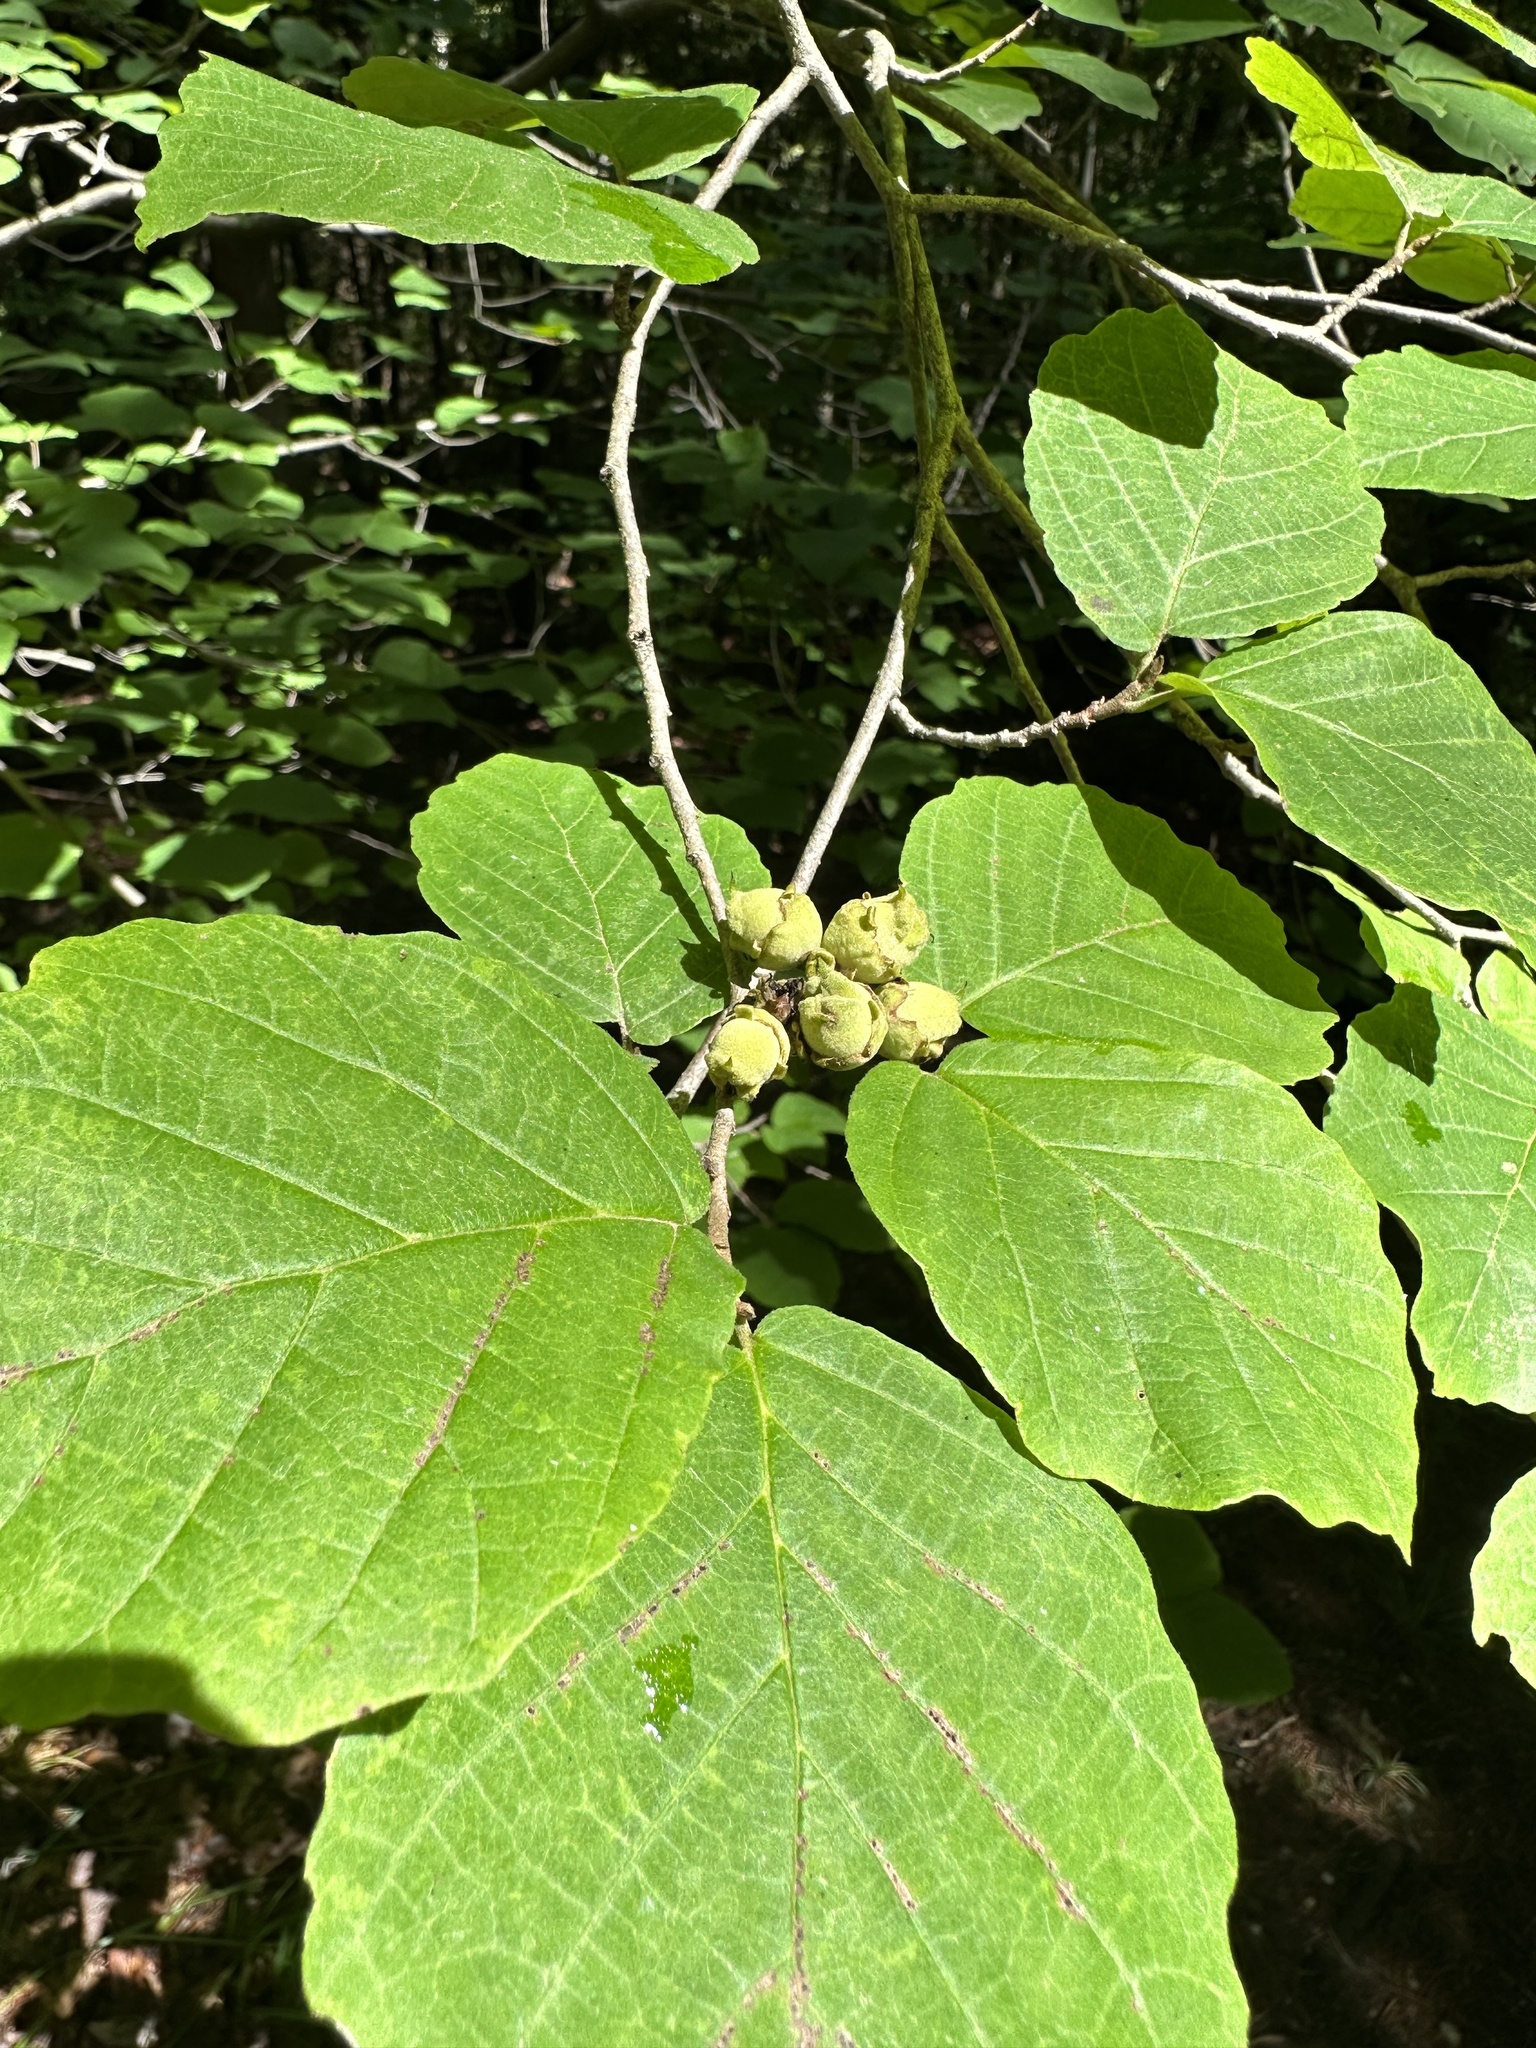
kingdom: Plantae
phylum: Tracheophyta
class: Magnoliopsida
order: Saxifragales
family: Hamamelidaceae
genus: Hamamelis
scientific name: Hamamelis virginiana
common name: Witch-hazel
